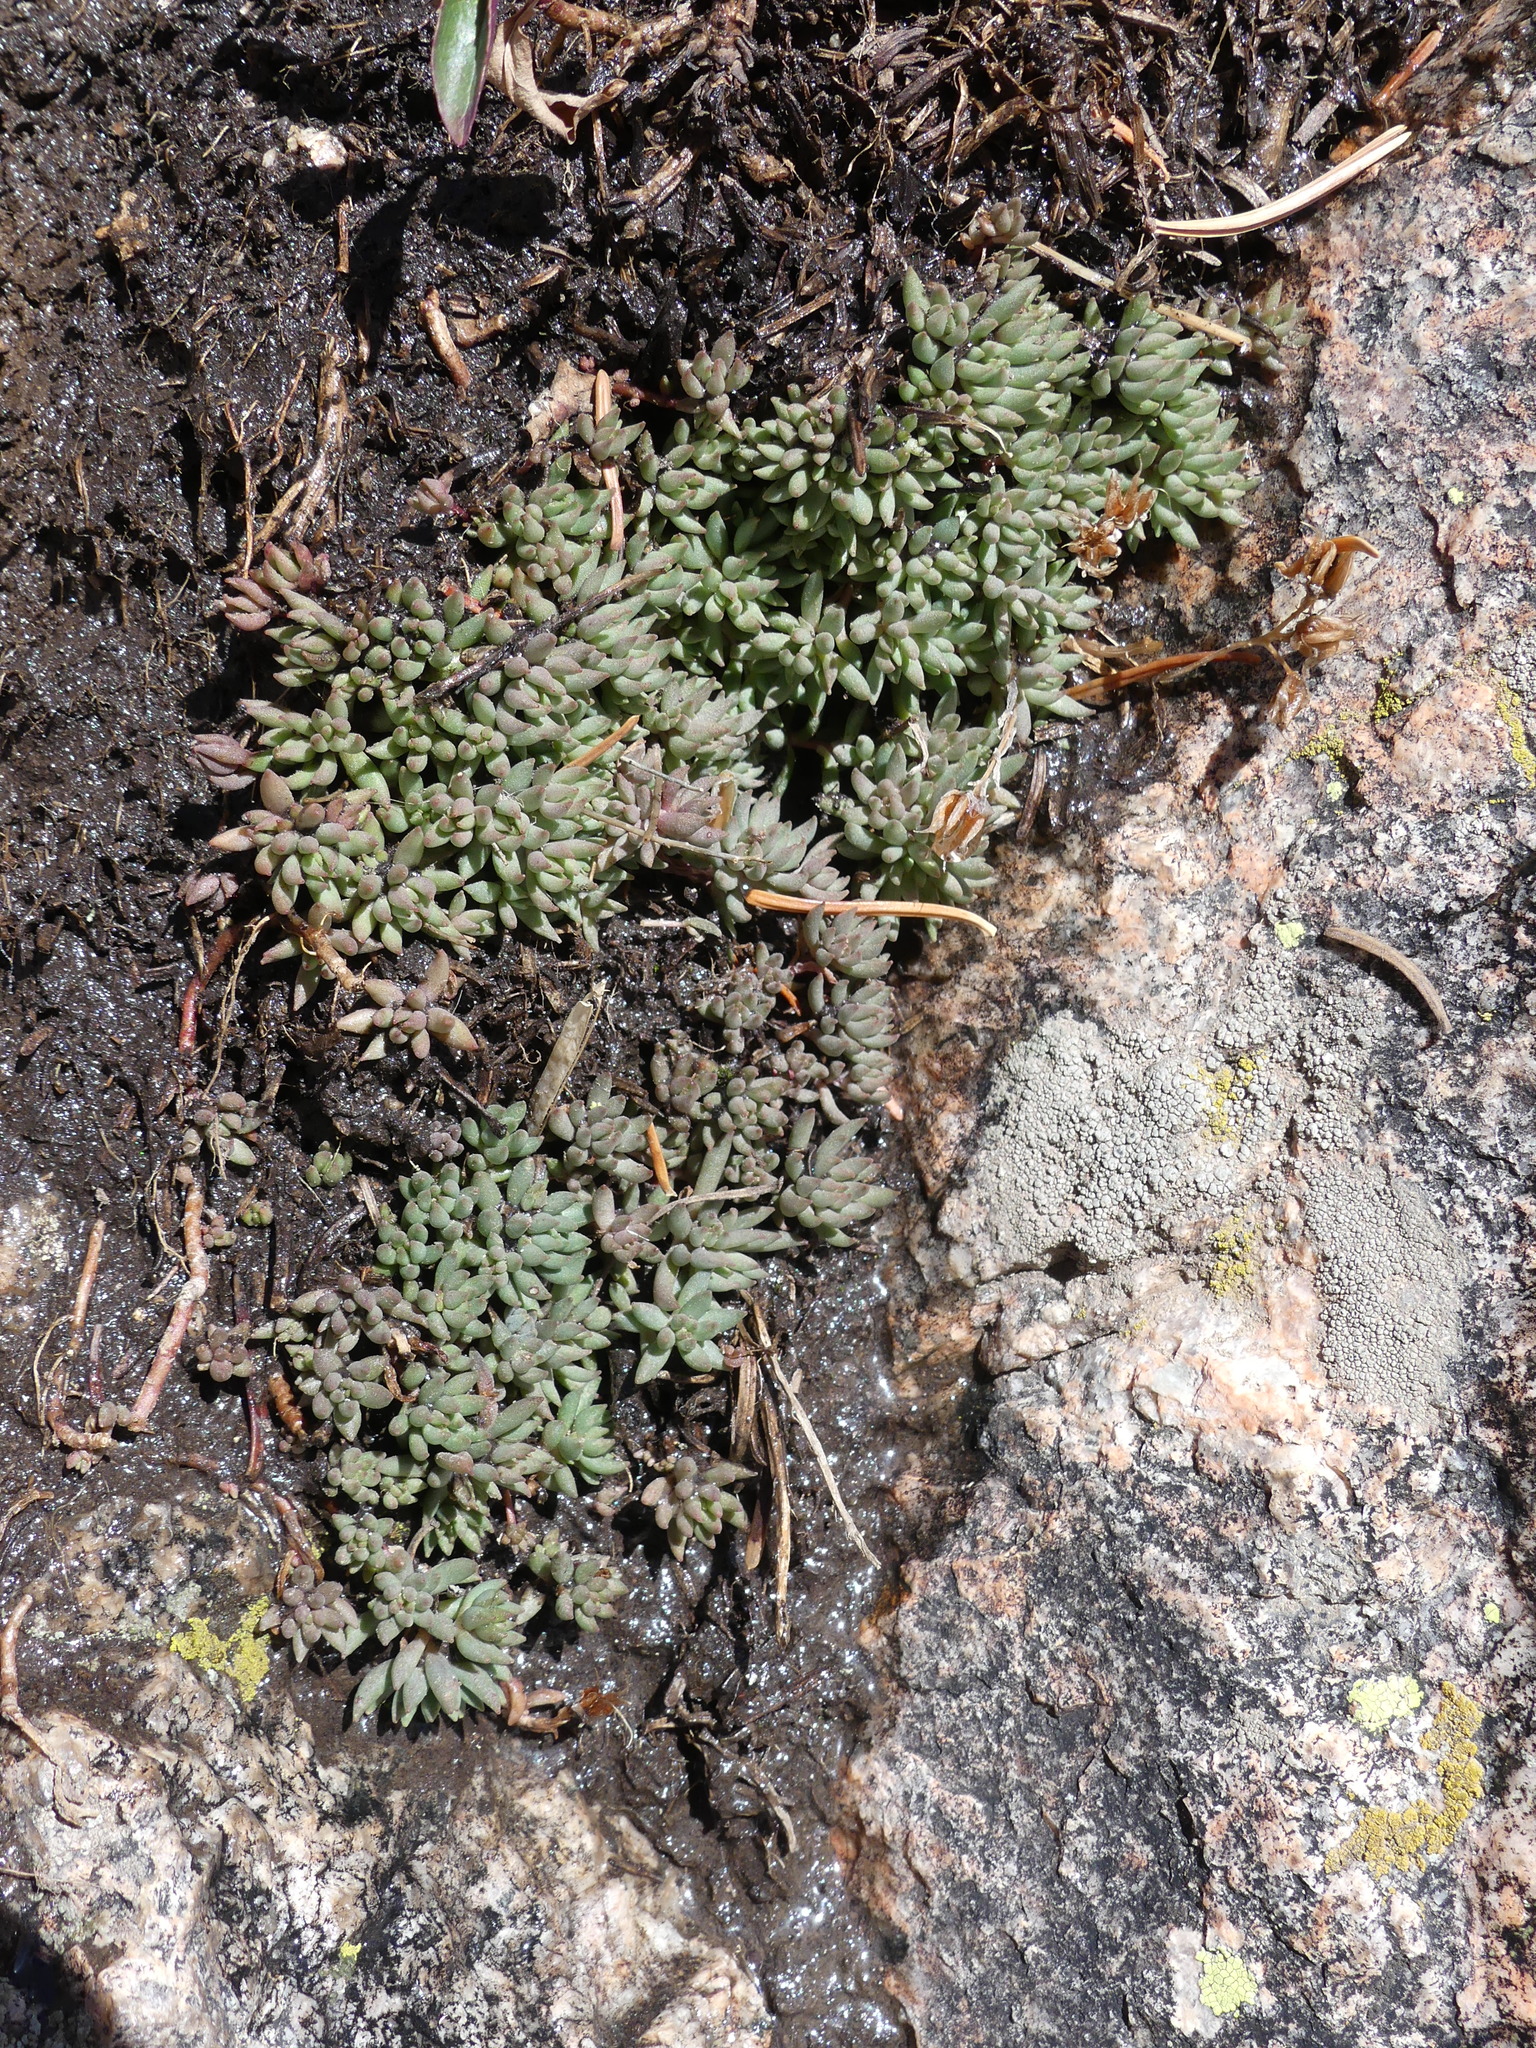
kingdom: Plantae
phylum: Tracheophyta
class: Magnoliopsida
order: Saxifragales
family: Crassulaceae
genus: Sedum
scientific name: Sedum lanceolatum
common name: Common stonecrop
